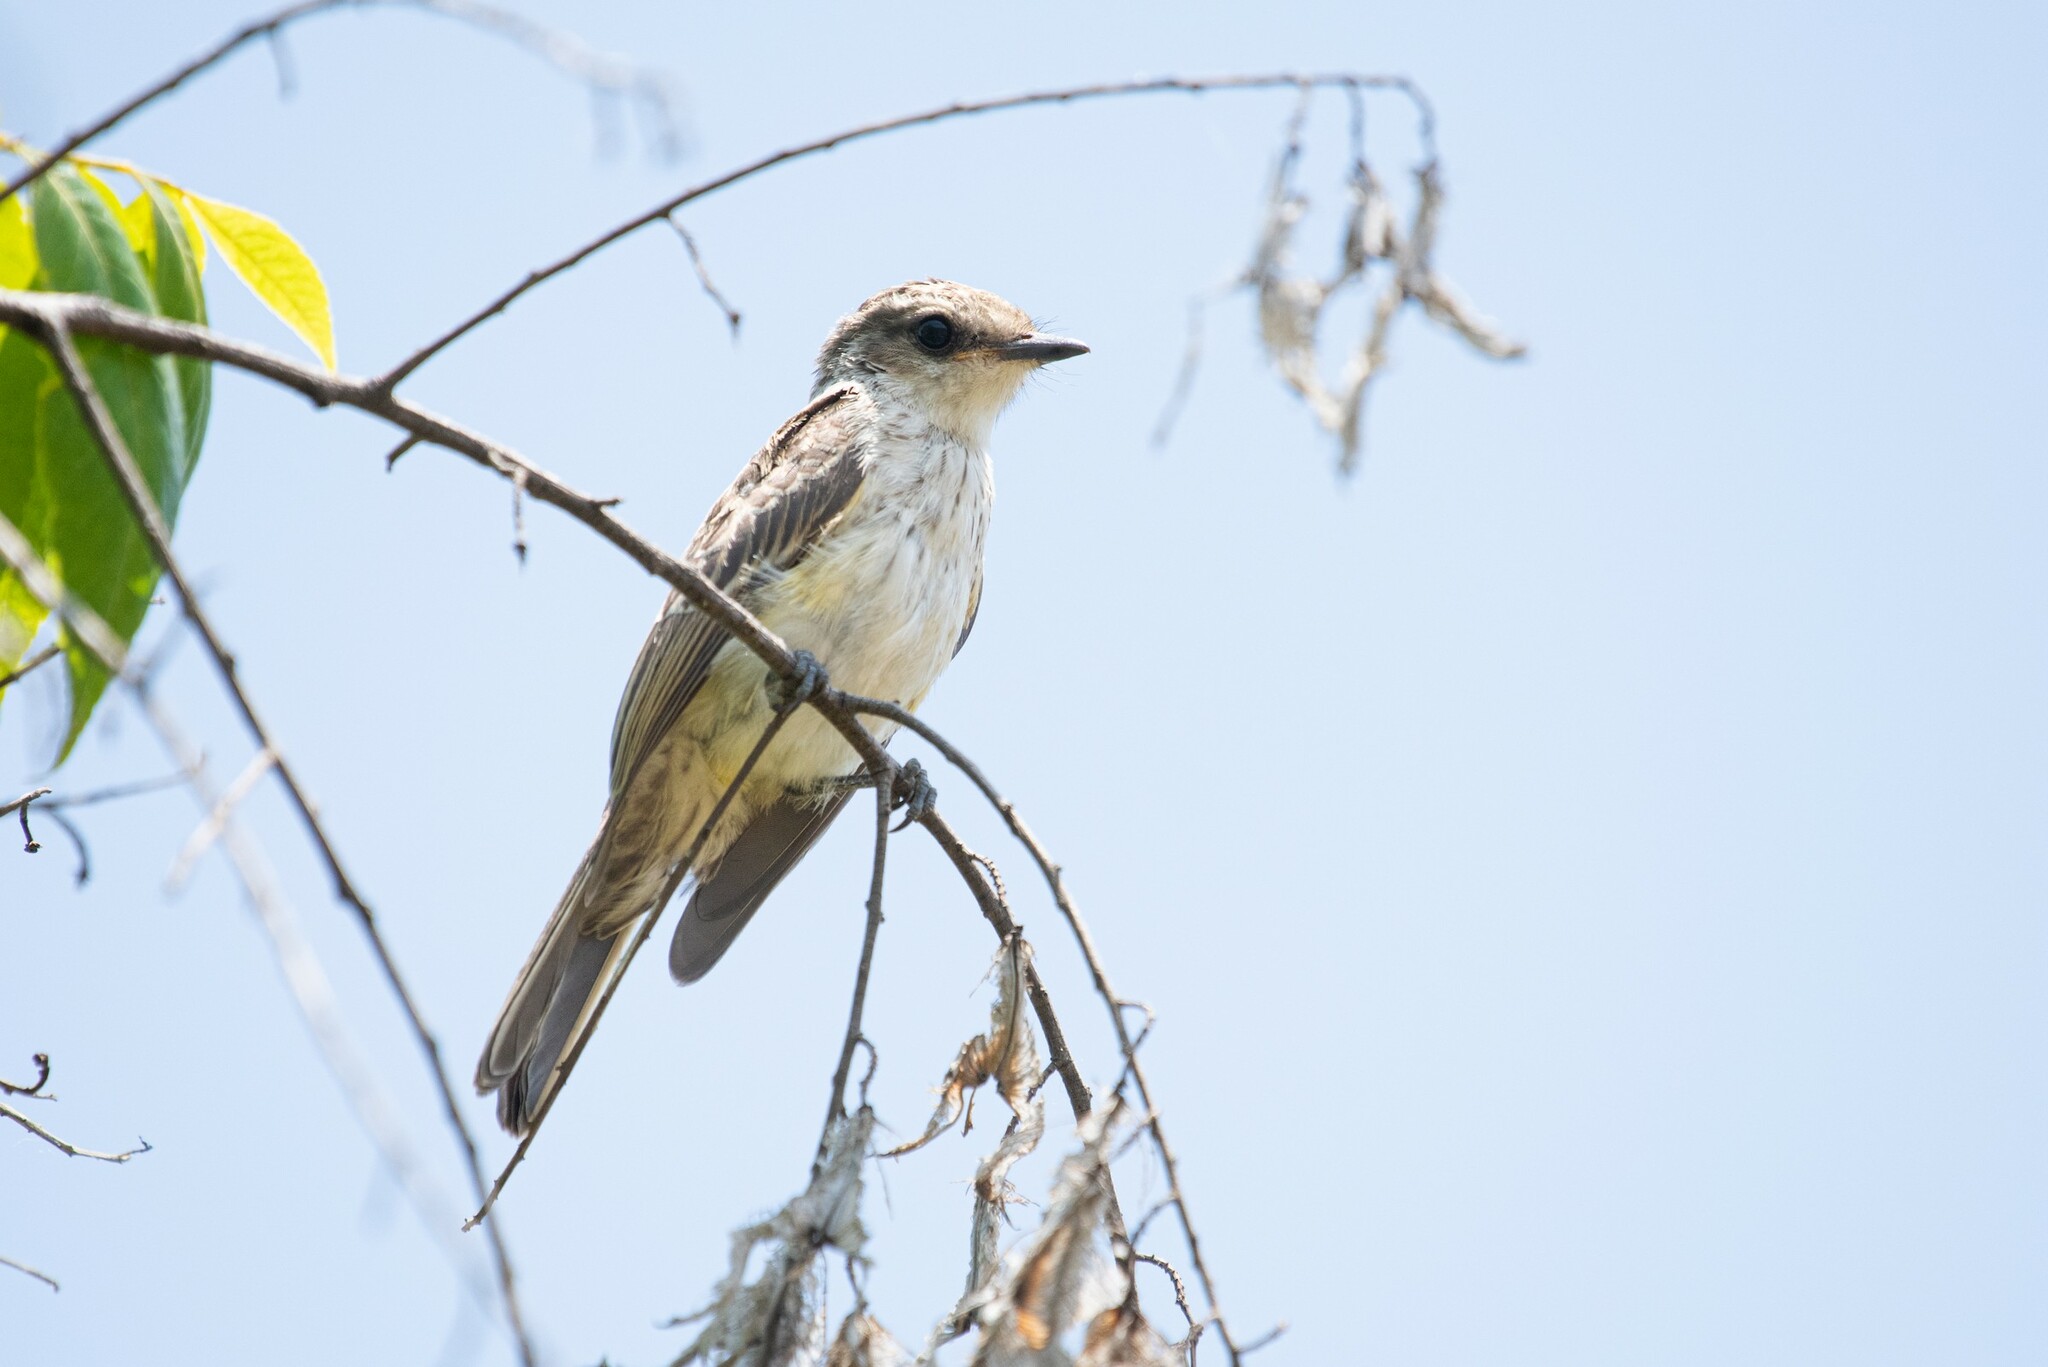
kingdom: Animalia
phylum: Chordata
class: Aves
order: Passeriformes
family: Tyrannidae
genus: Pyrocephalus
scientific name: Pyrocephalus rubinus
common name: Vermilion flycatcher
